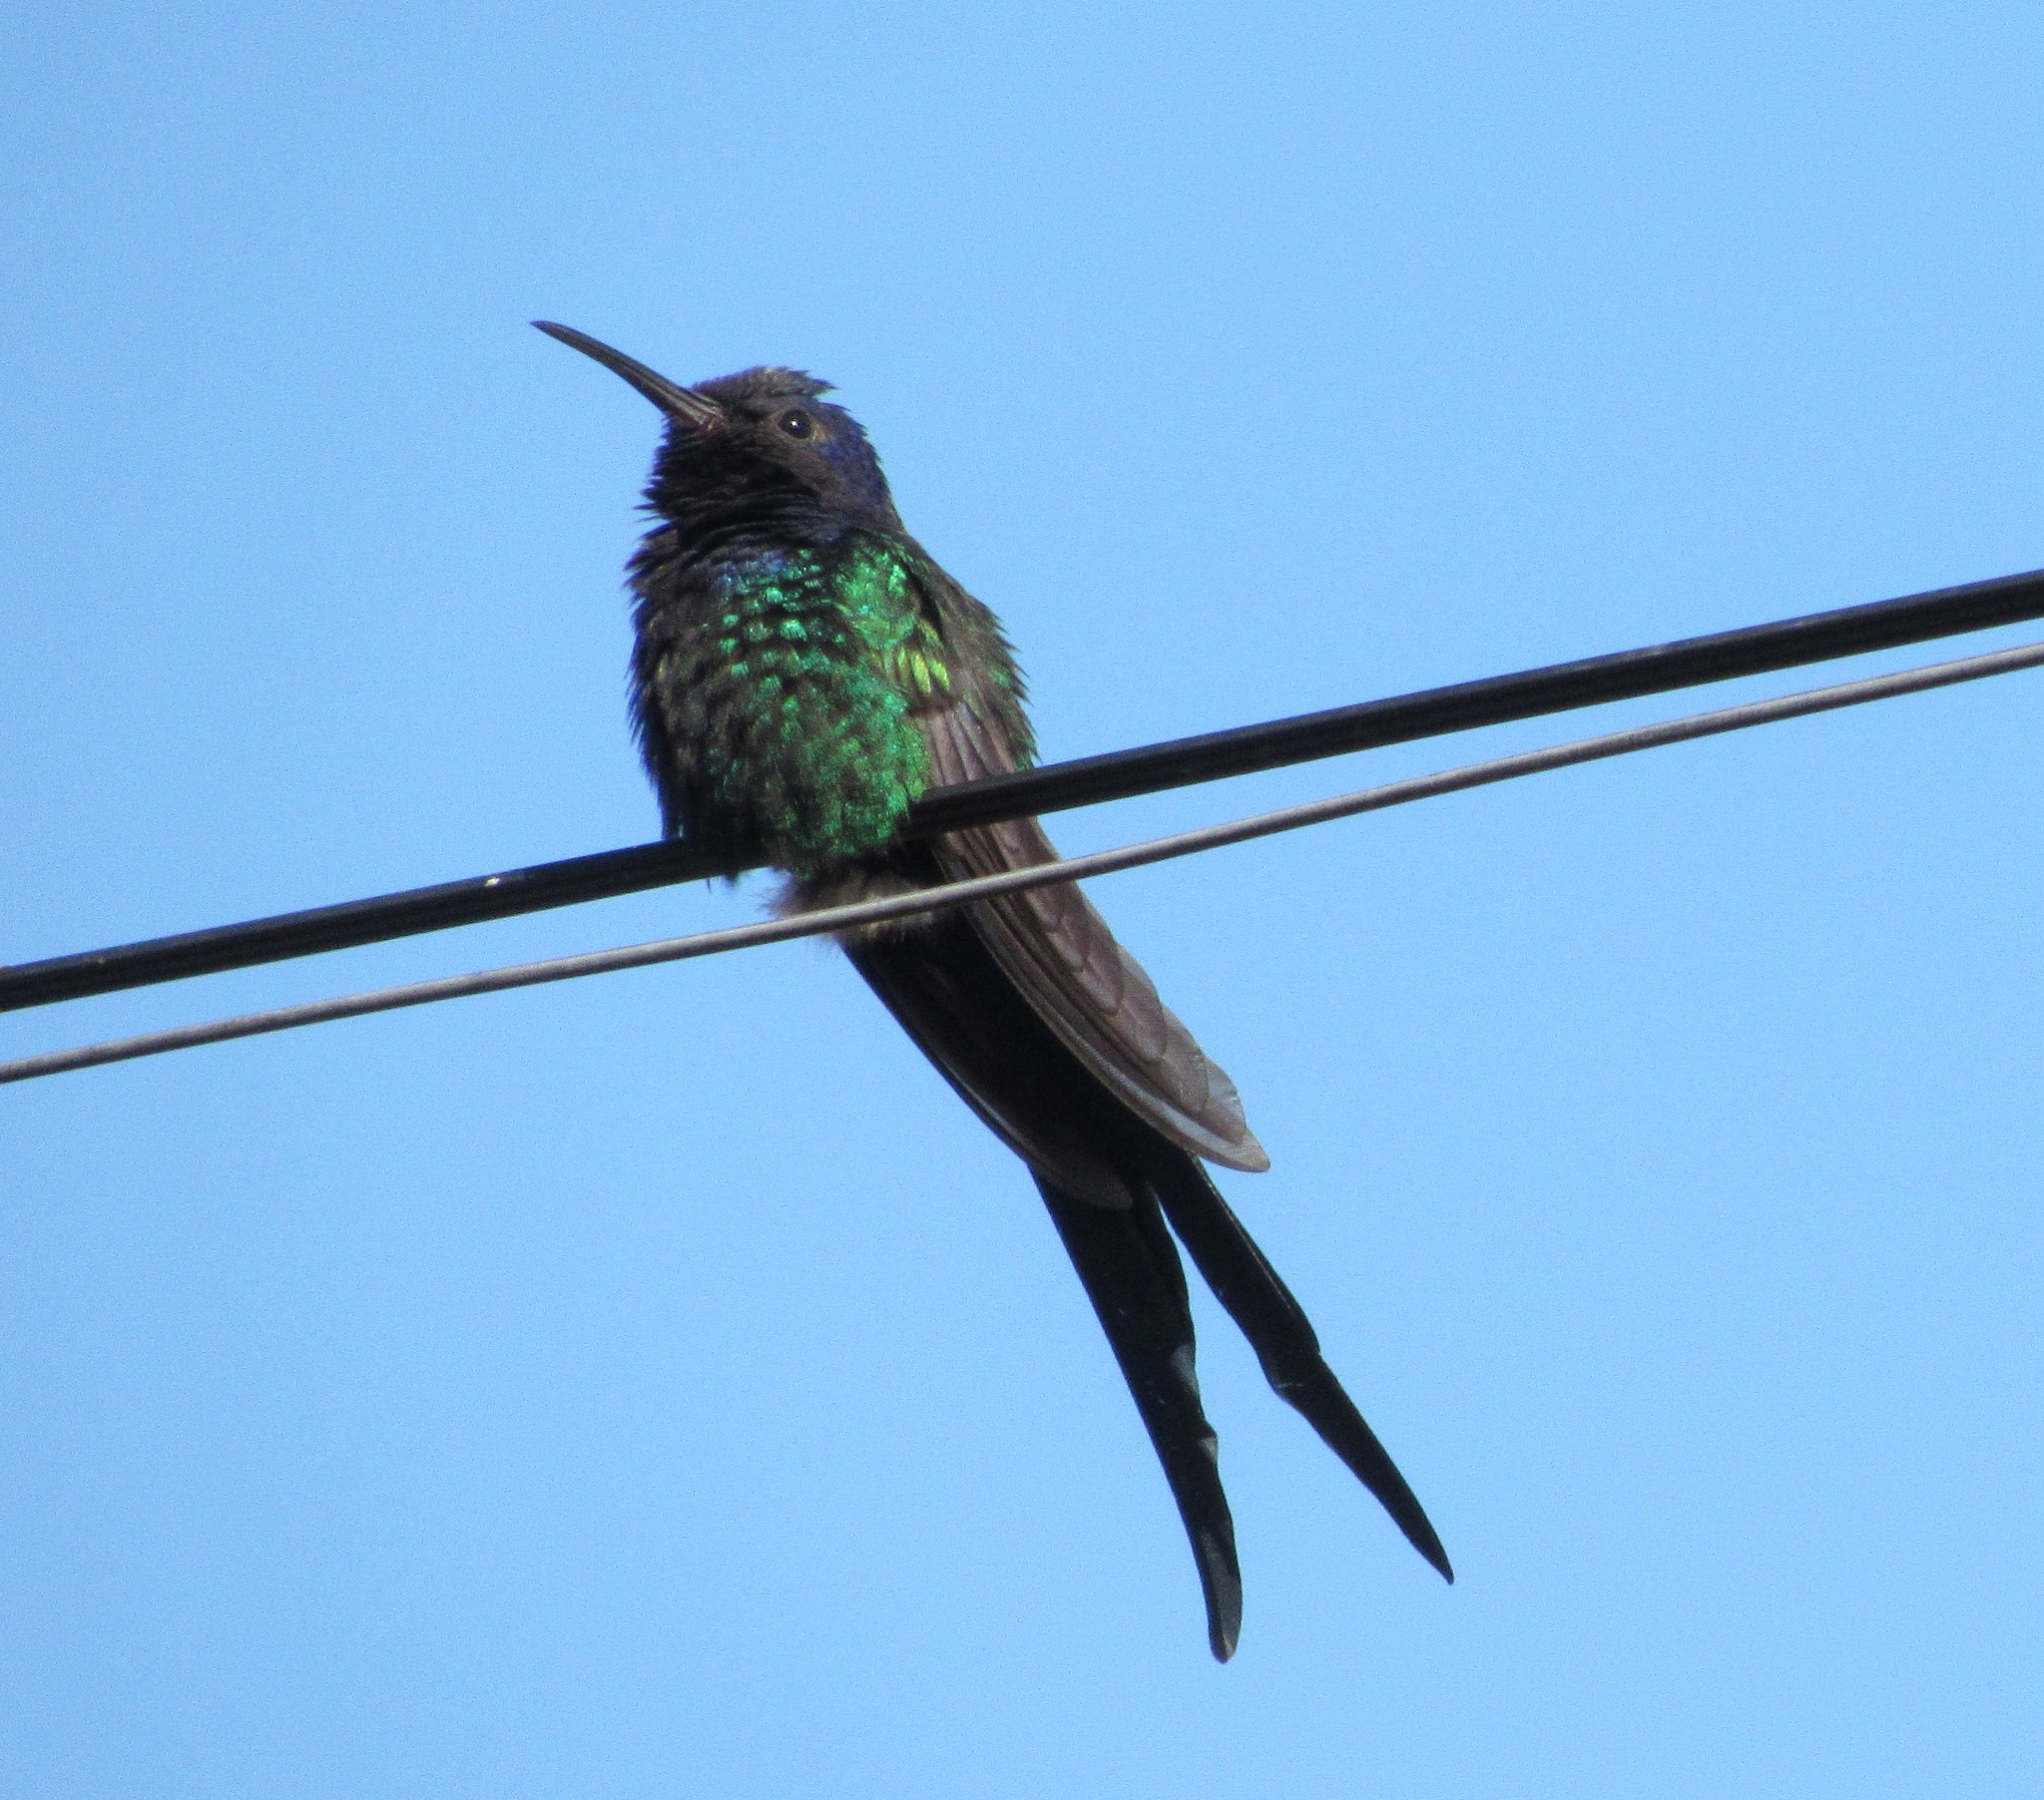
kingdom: Animalia
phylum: Chordata
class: Aves
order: Apodiformes
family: Trochilidae
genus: Eupetomena
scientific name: Eupetomena macroura
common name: Swallow-tailed hummingbird
